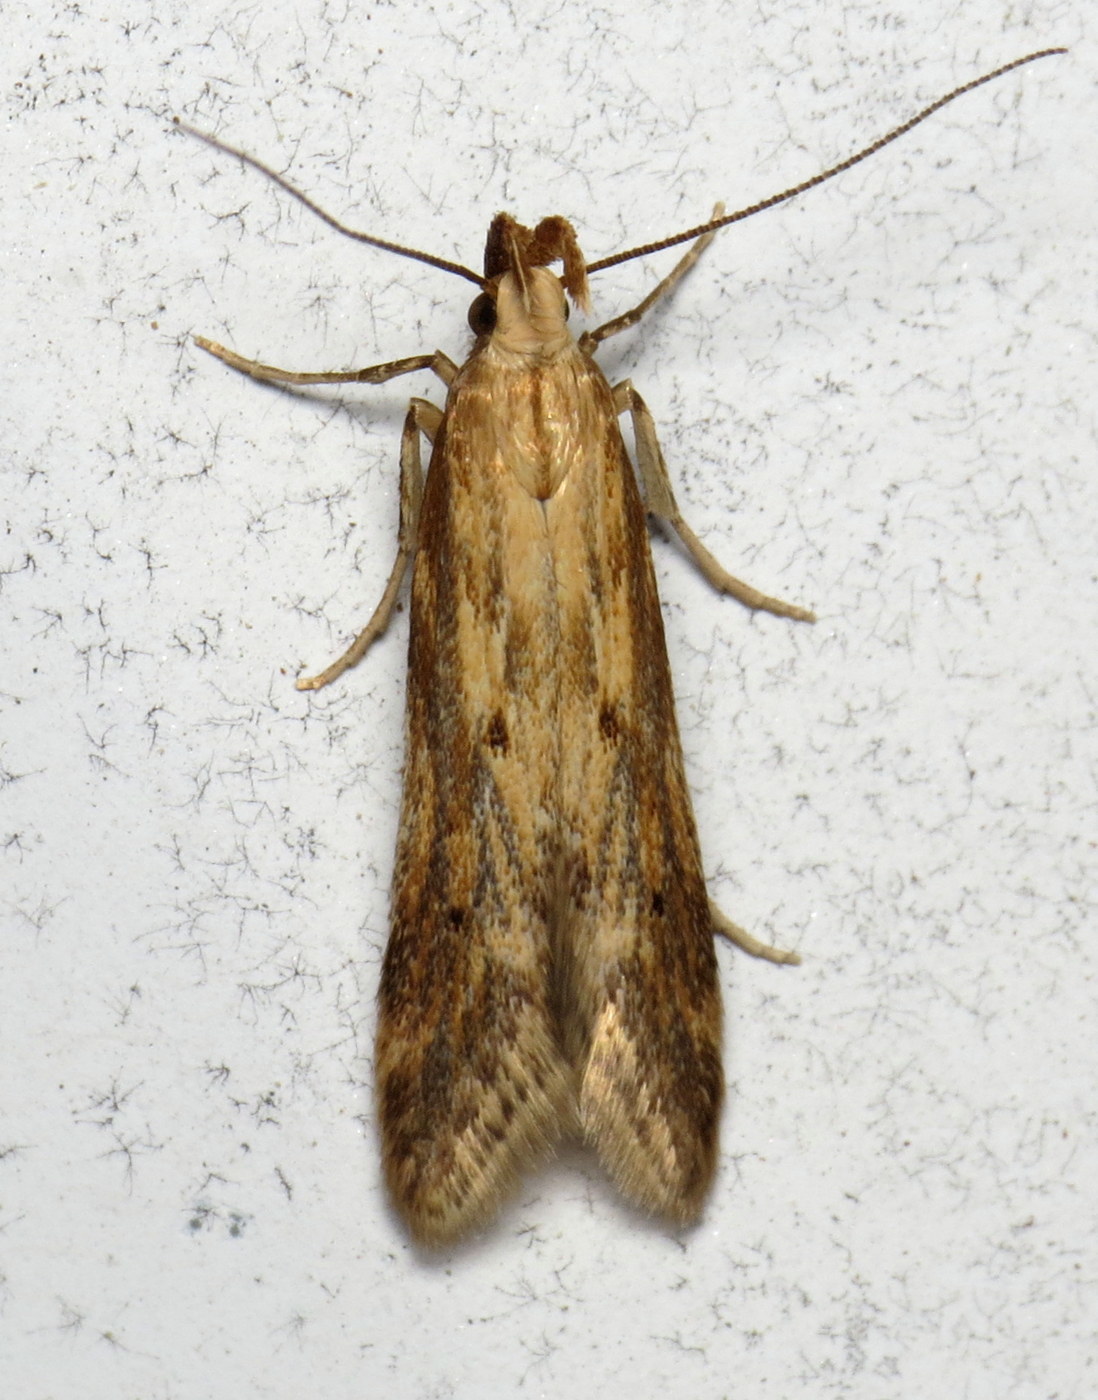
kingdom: Animalia
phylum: Arthropoda
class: Insecta
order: Lepidoptera
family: Gelechiidae
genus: Metzneria
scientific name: Metzneria lappella
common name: Burdock neb
